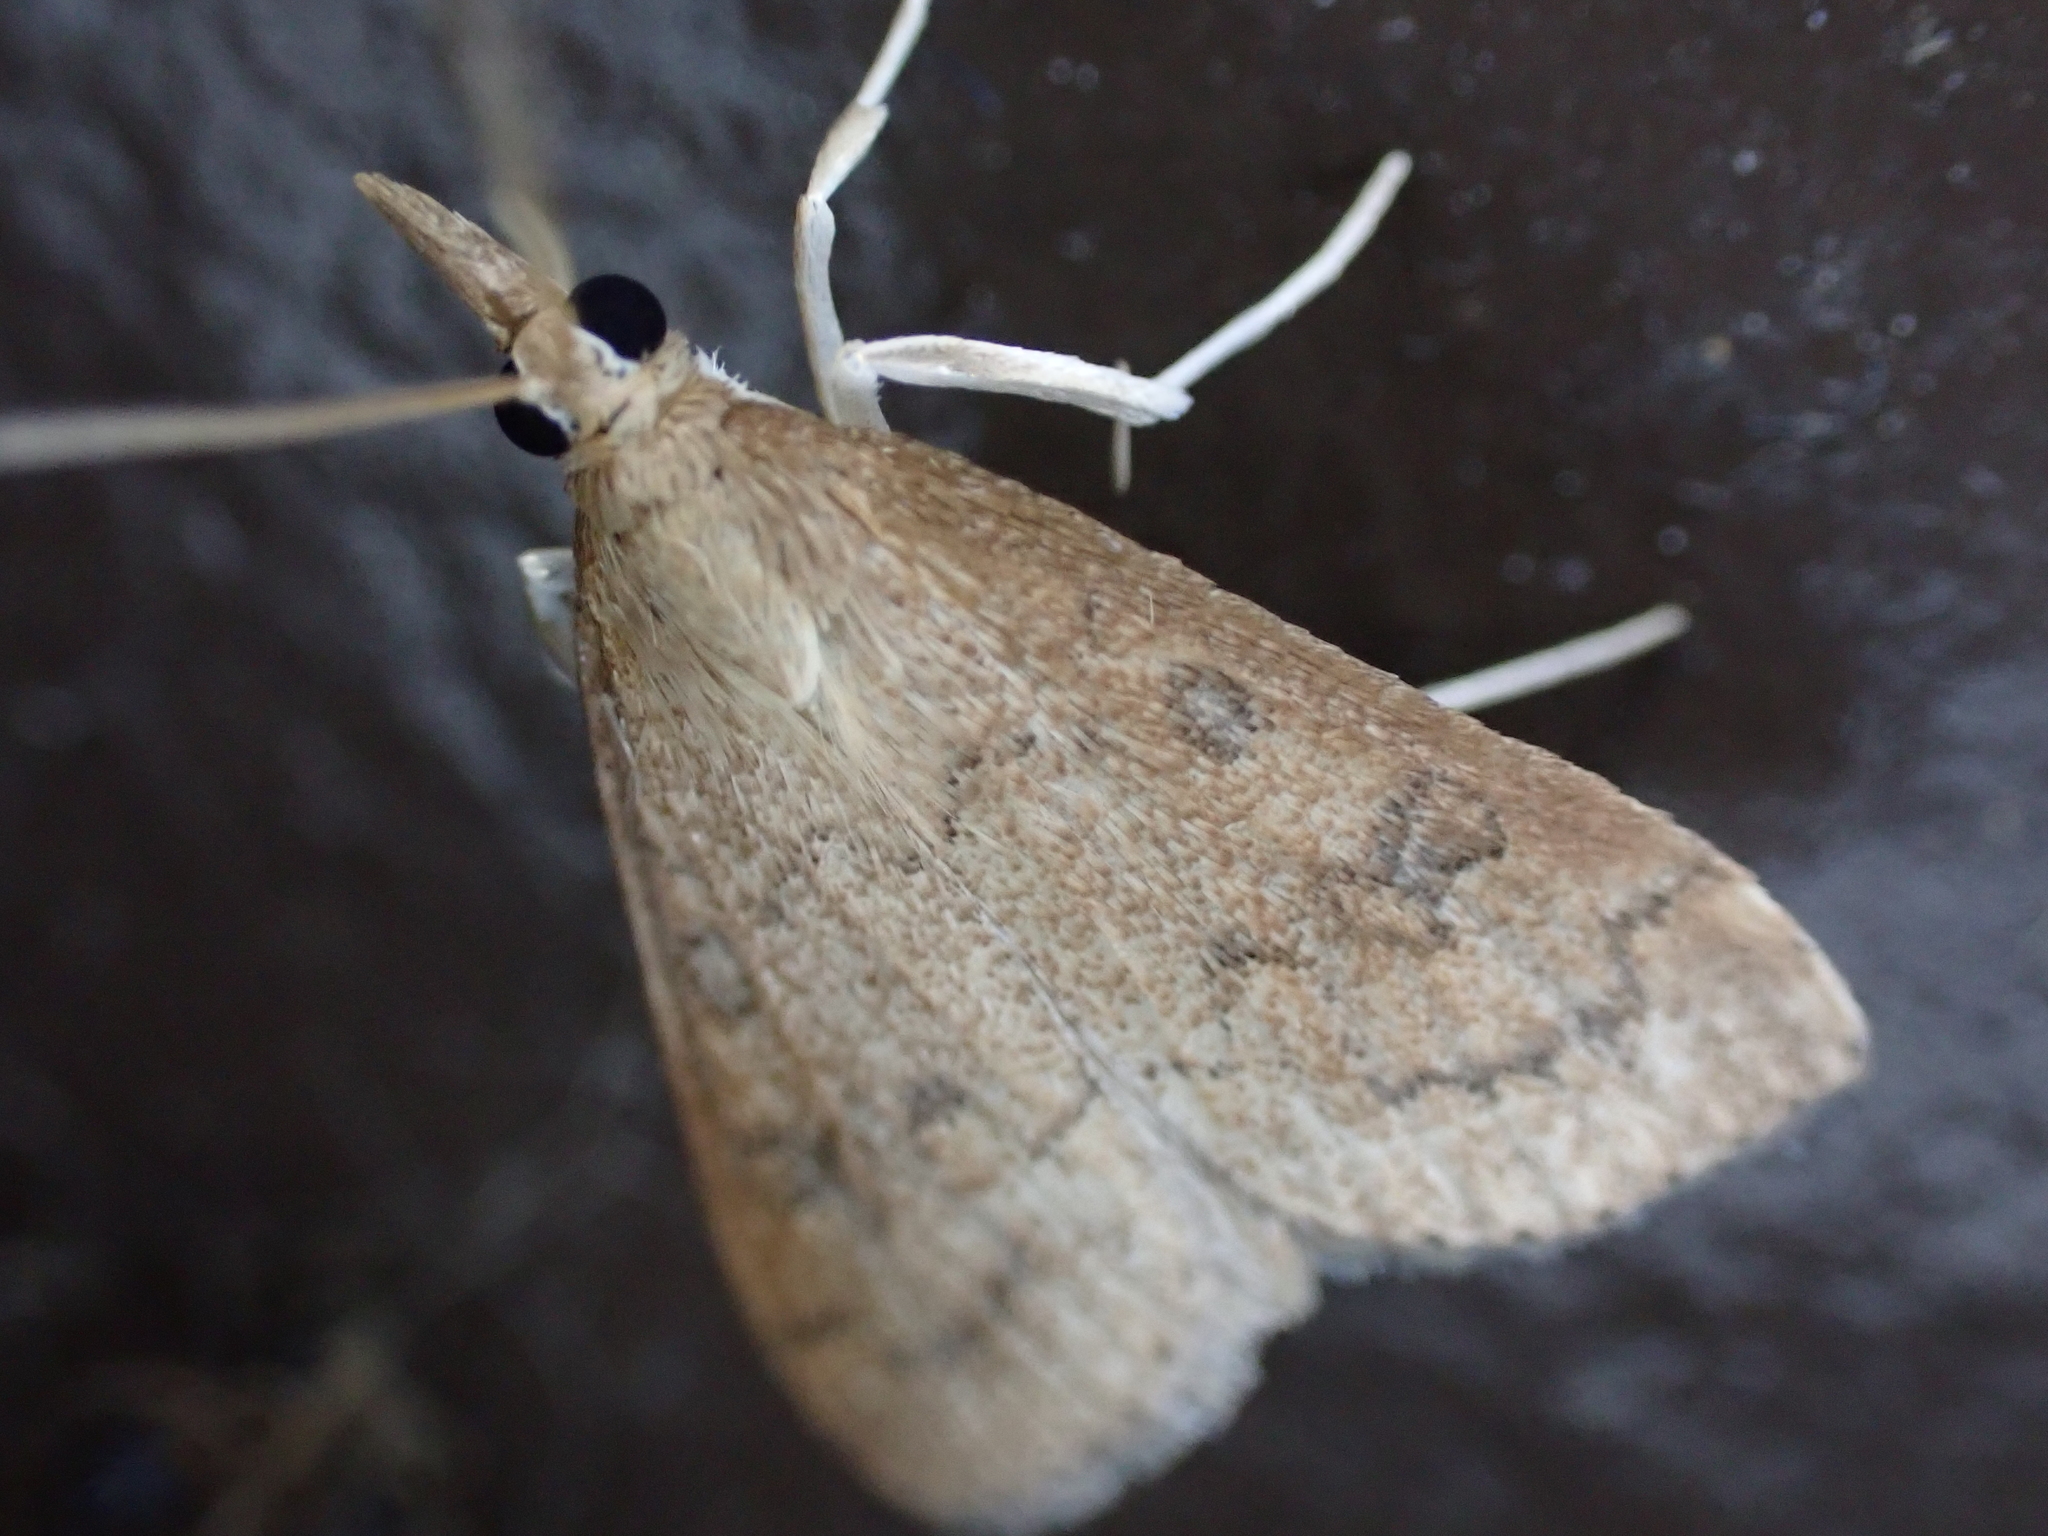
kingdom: Animalia
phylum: Arthropoda
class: Insecta
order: Lepidoptera
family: Crambidae
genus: Udea
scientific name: Udea rubigalis
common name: Celery leaftier moth
